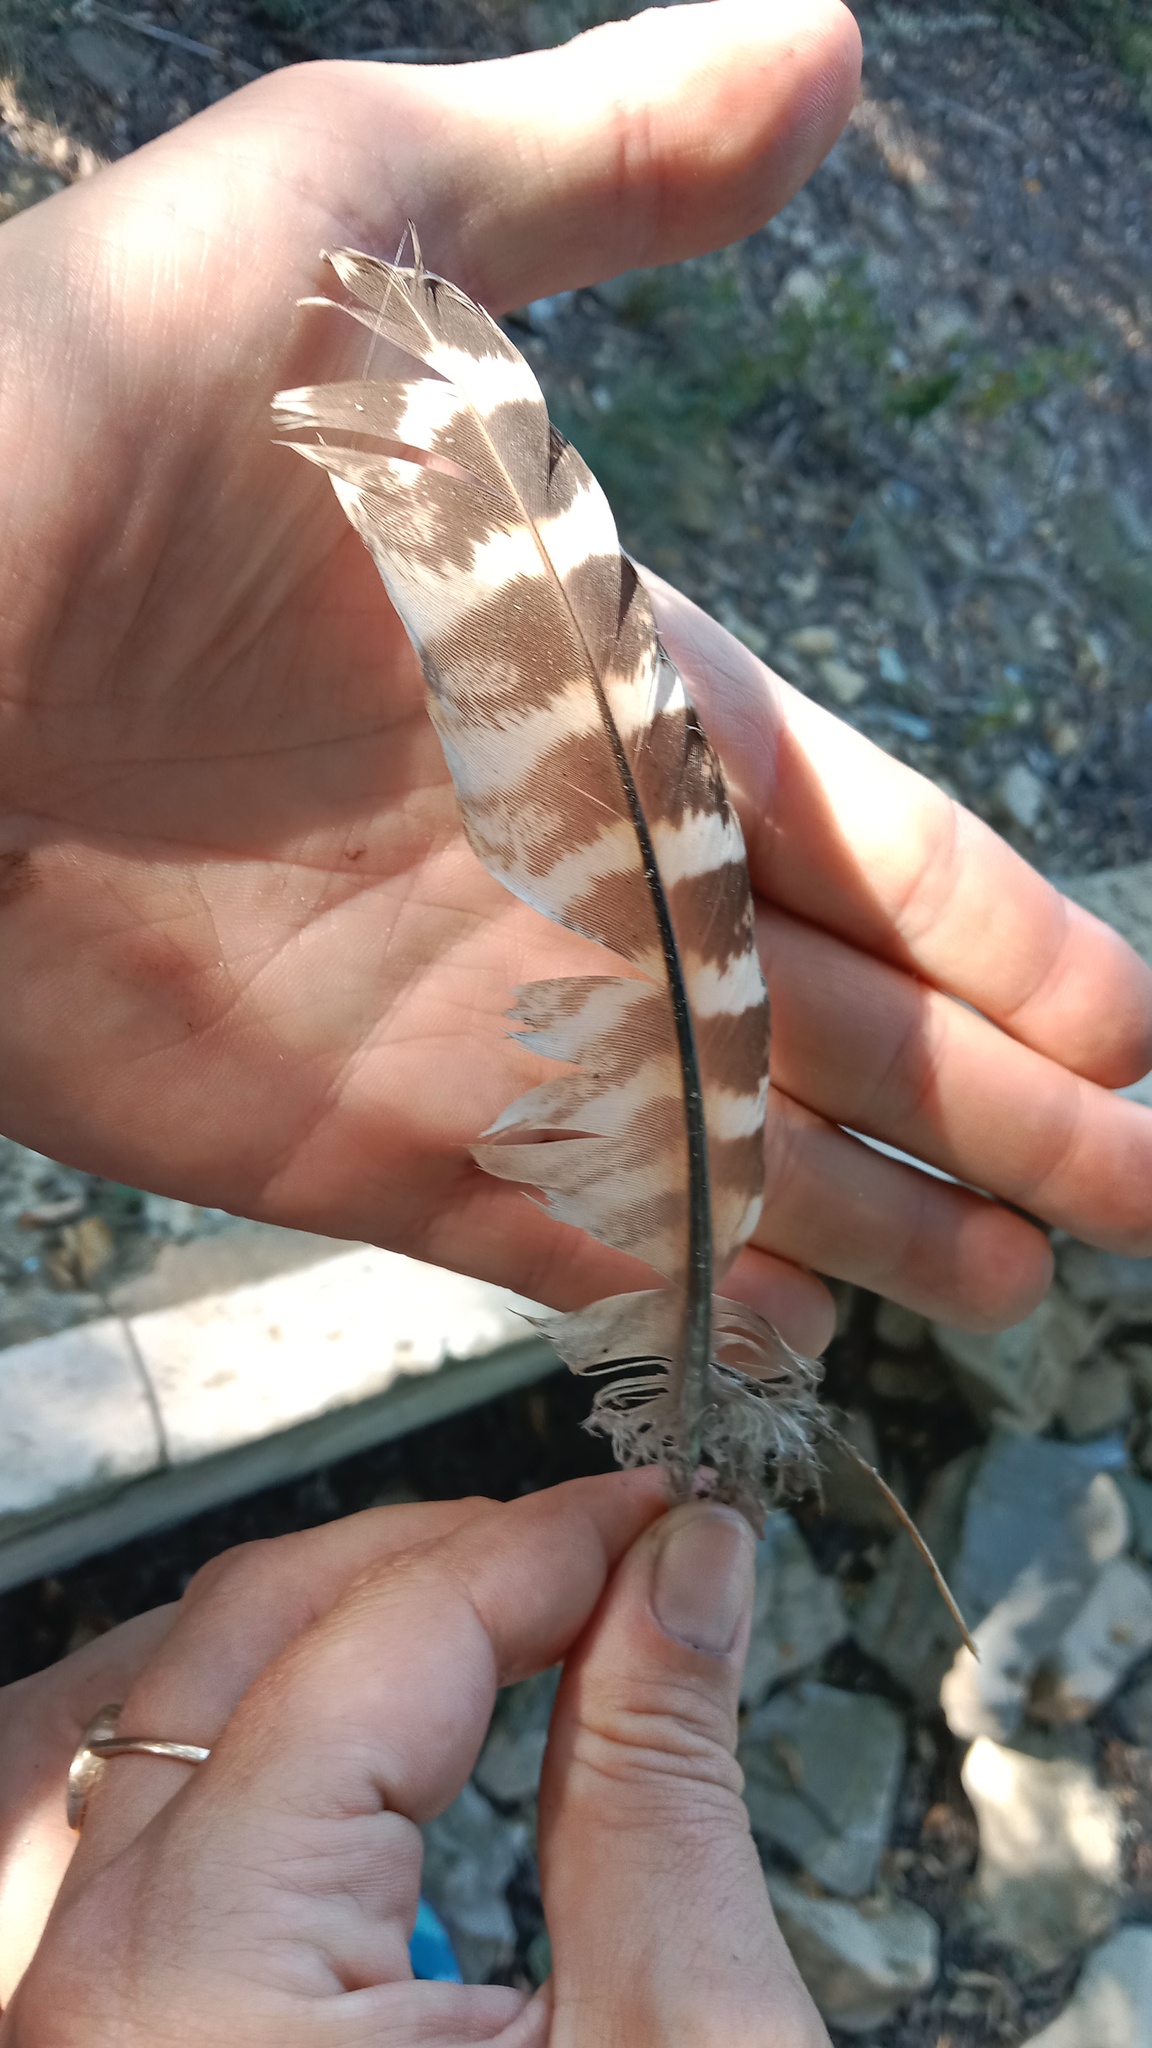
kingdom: Animalia
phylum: Chordata
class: Aves
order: Galliformes
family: Phasianidae
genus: Phasianus
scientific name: Phasianus colchicus
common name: Common pheasant
